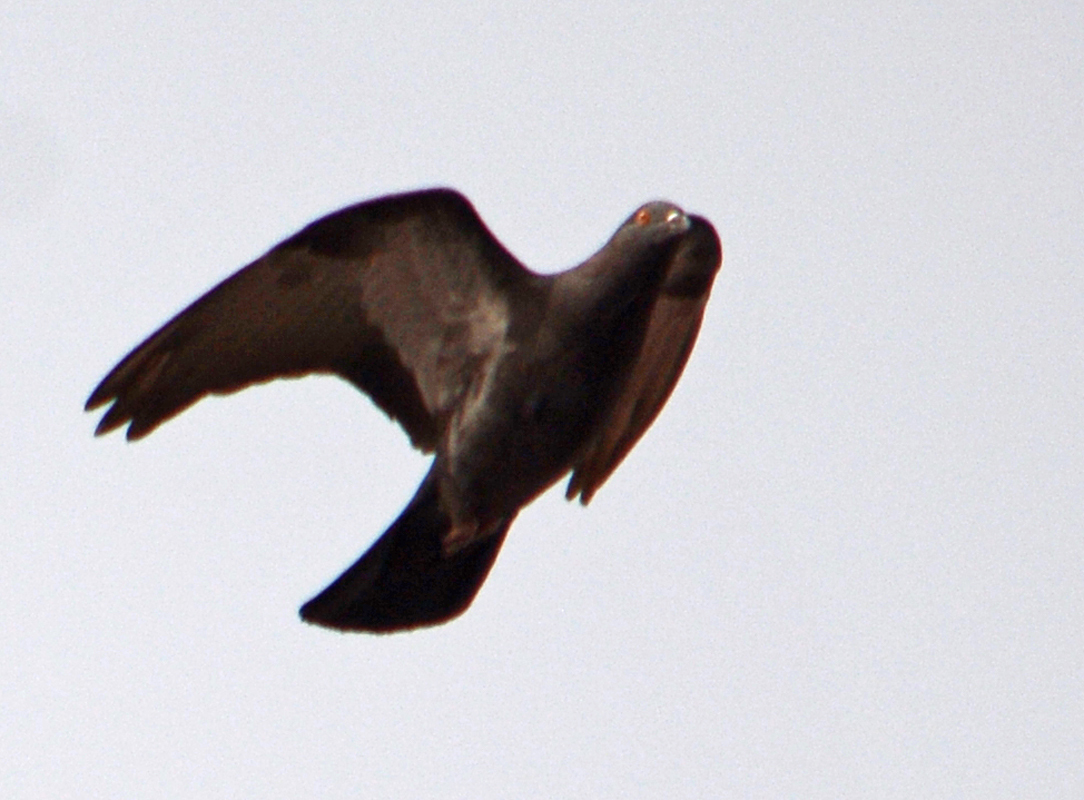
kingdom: Animalia
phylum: Chordata
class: Aves
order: Columbiformes
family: Columbidae
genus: Columba
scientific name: Columba livia
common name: Rock pigeon
